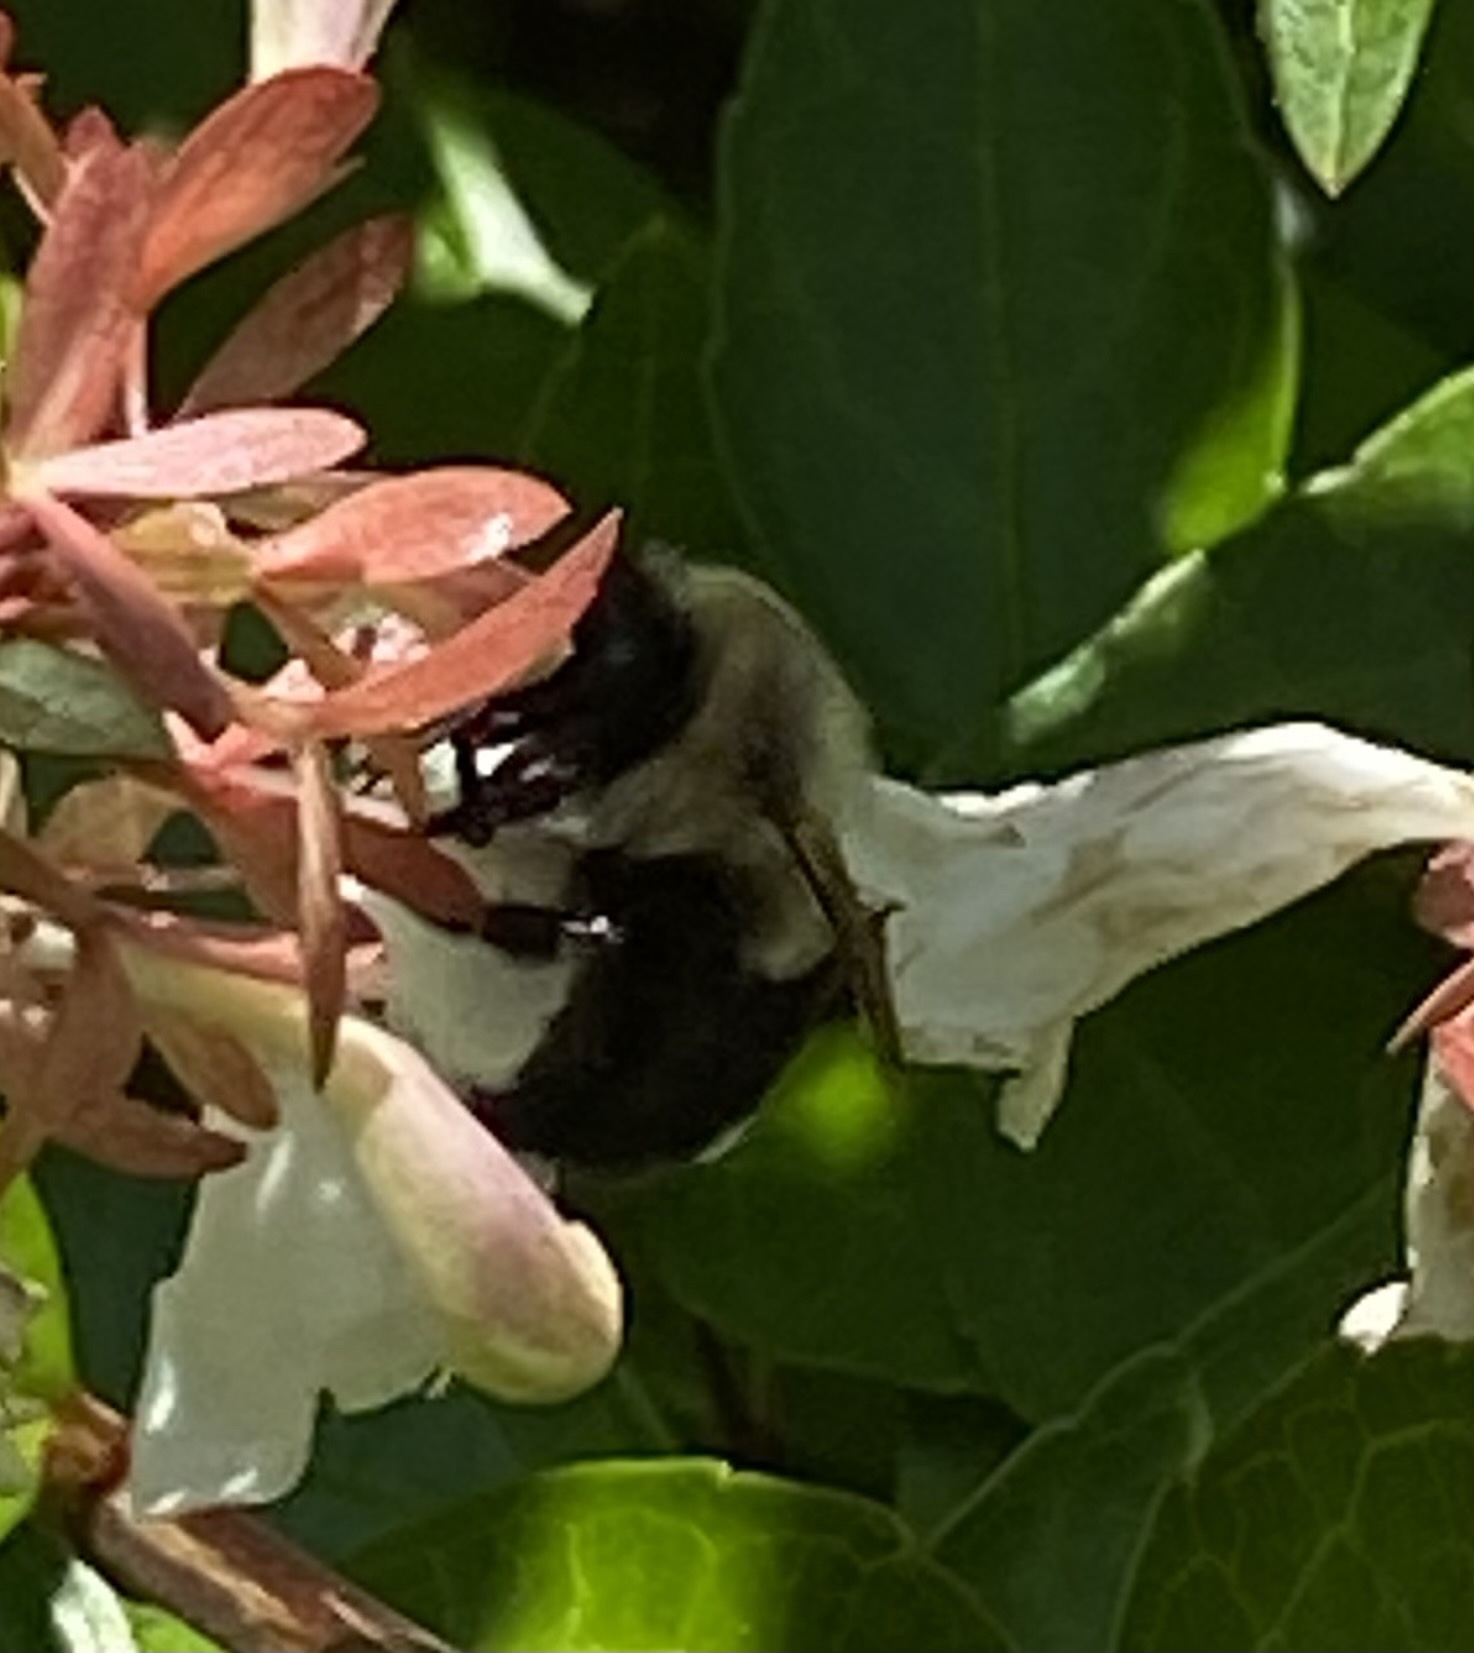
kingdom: Animalia
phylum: Arthropoda
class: Insecta
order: Hymenoptera
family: Apidae
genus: Bombus
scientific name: Bombus impatiens
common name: Common eastern bumble bee
